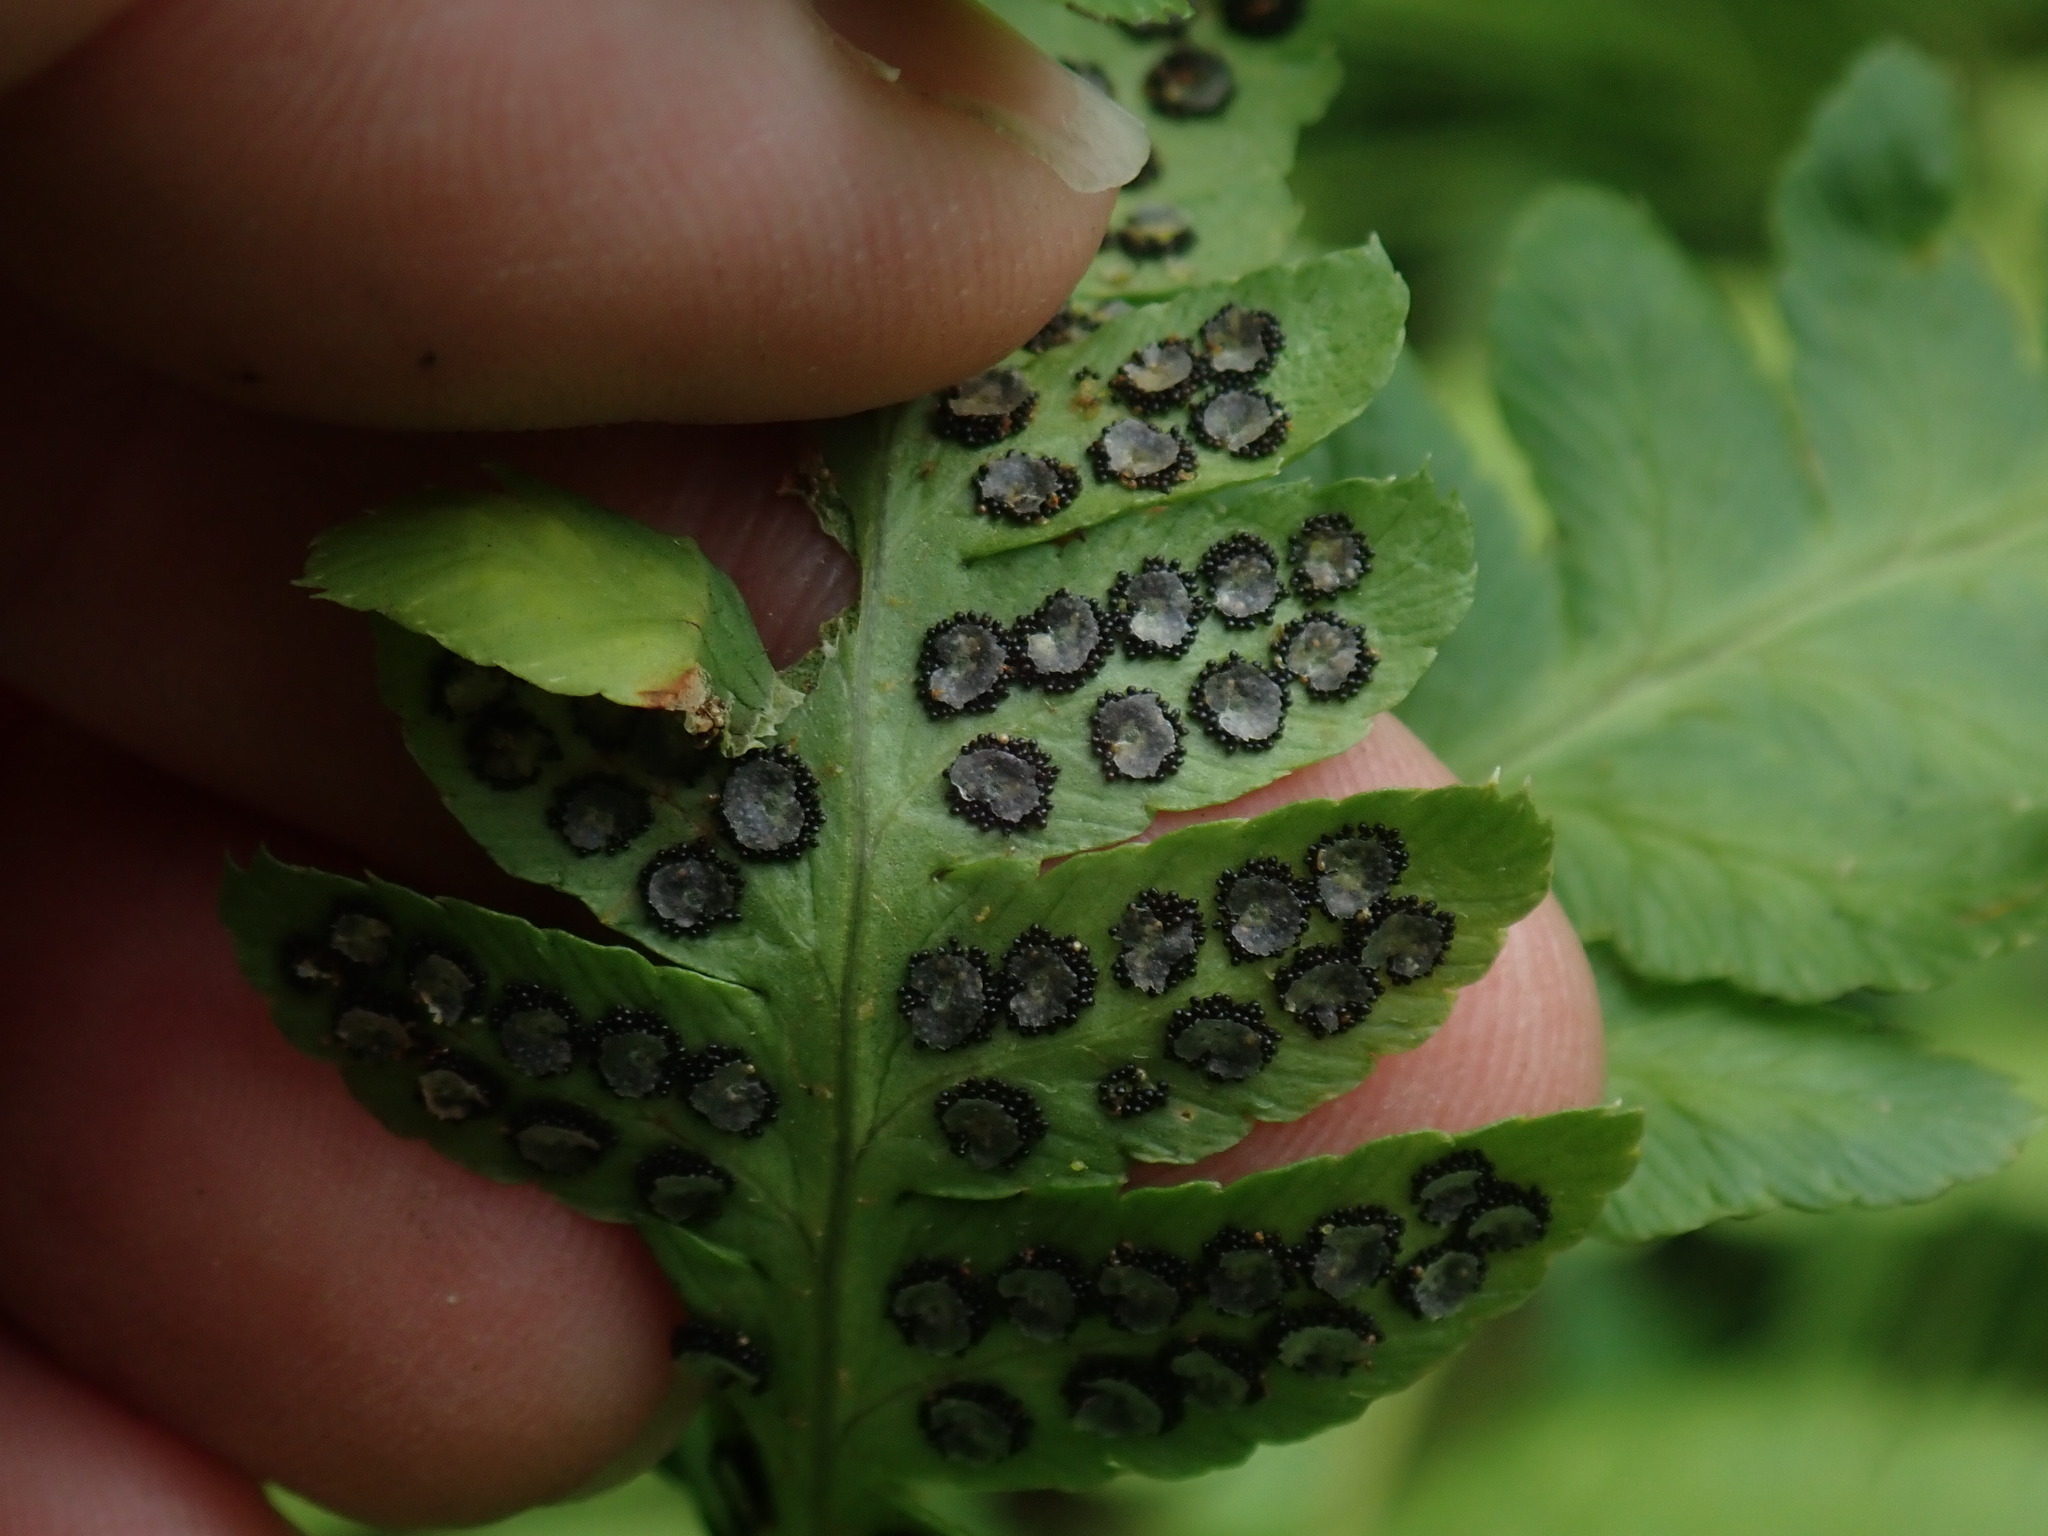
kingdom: Plantae
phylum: Tracheophyta
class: Polypodiopsida
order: Polypodiales
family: Dryopteridaceae
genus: Dryopteris
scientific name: Dryopteris clintoniana
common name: Clinton's wood fern
